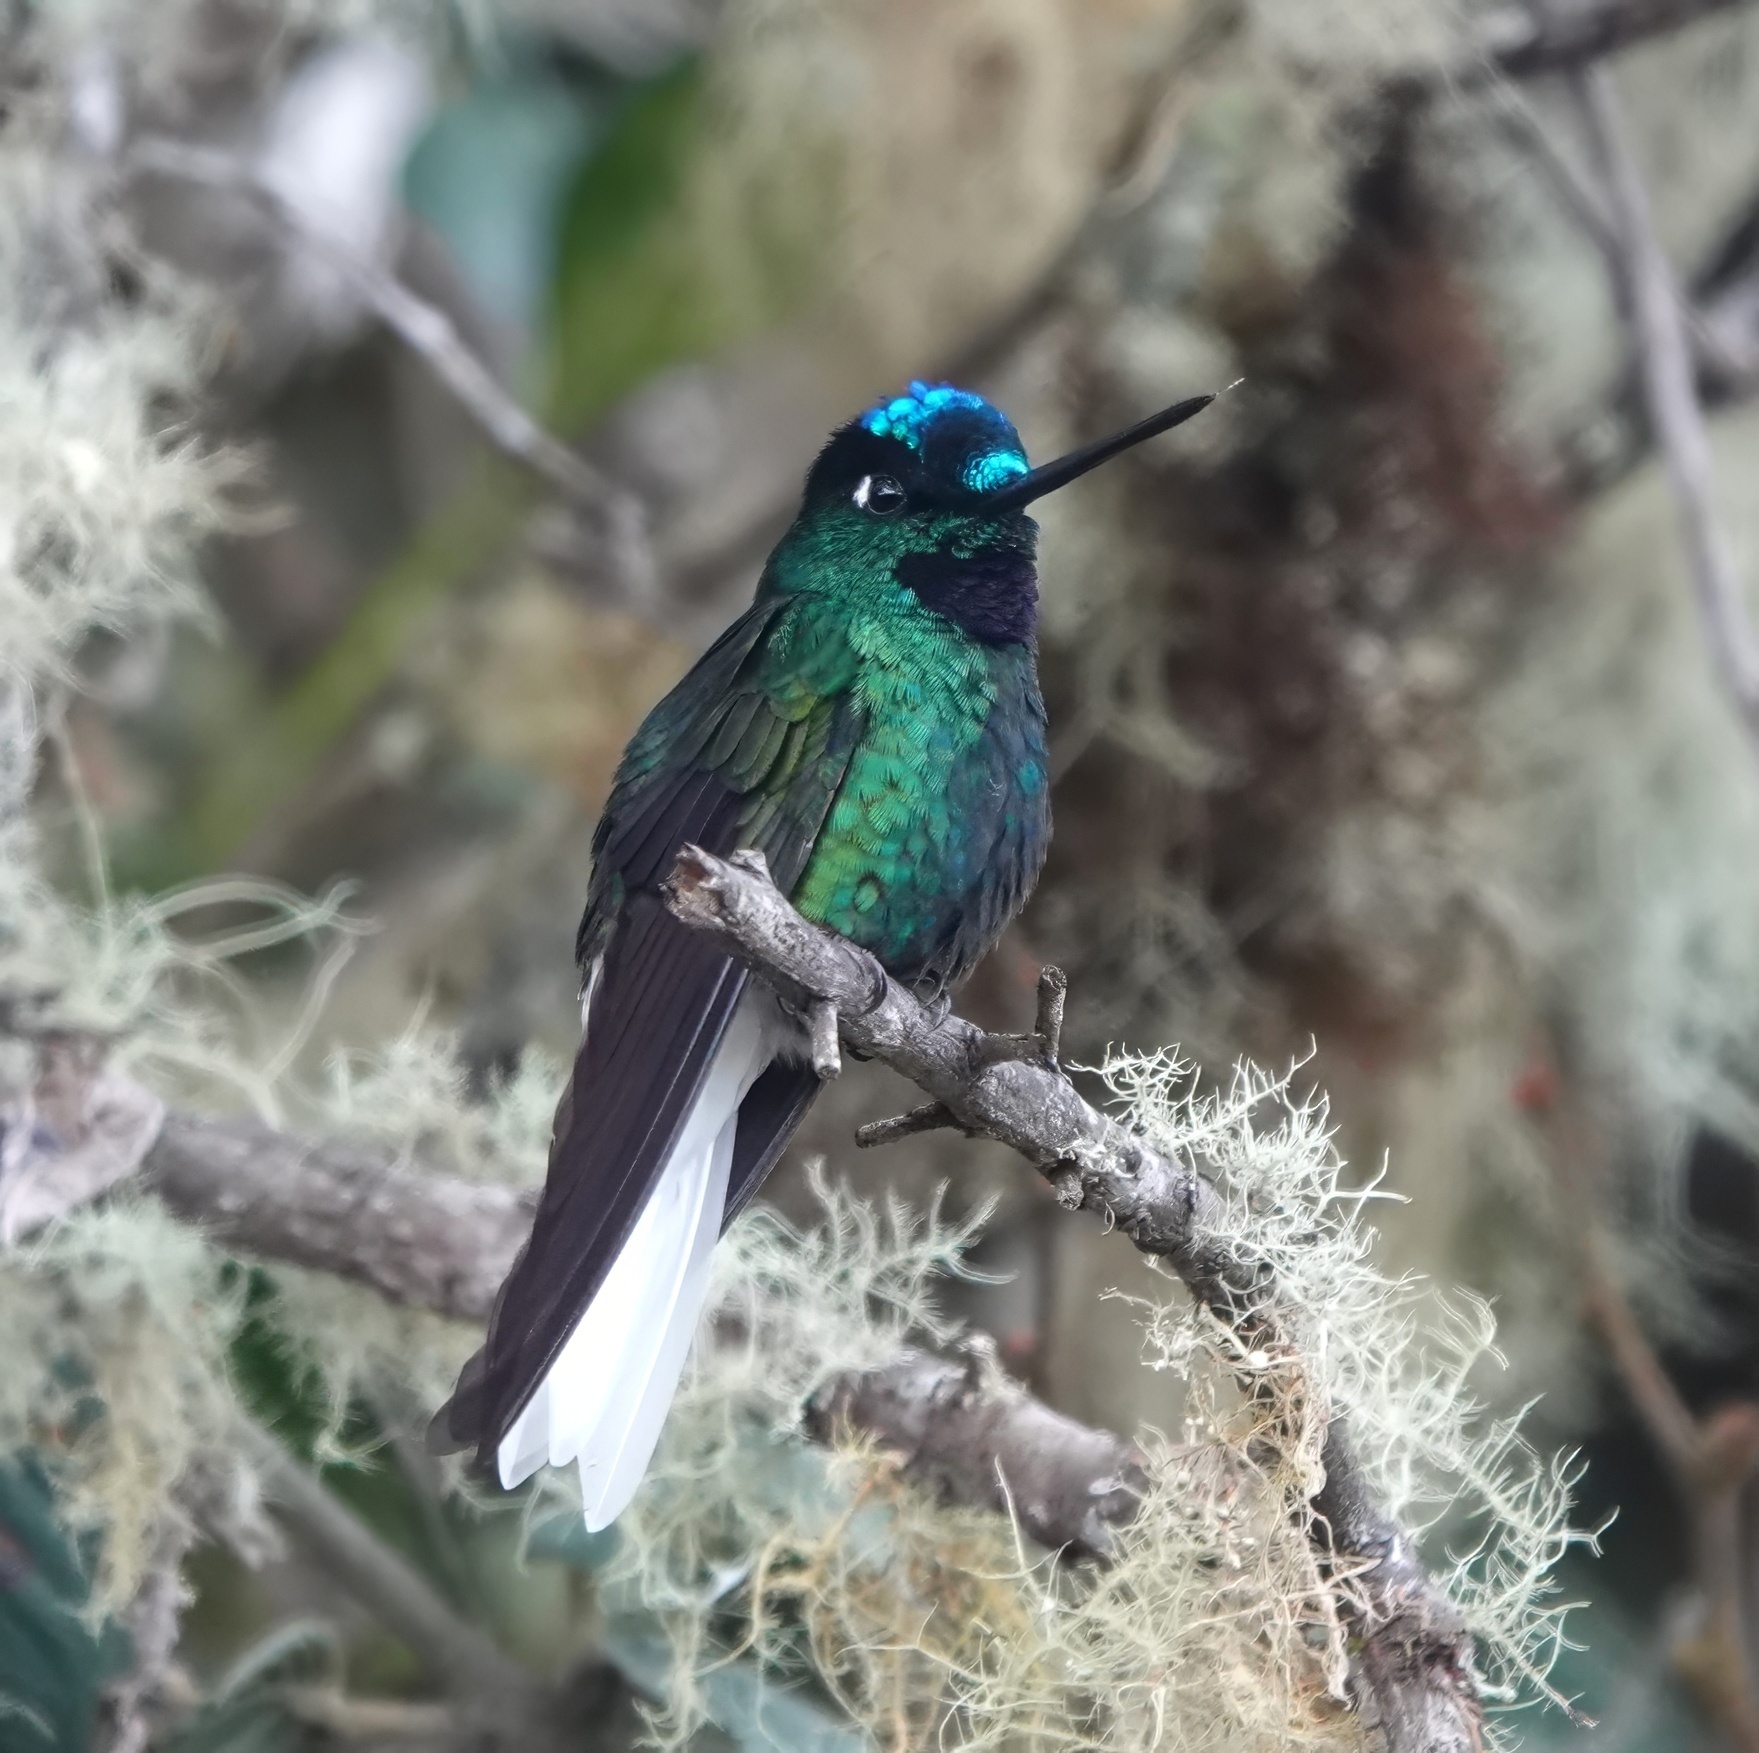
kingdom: Animalia
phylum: Chordata
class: Aves
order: Apodiformes
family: Trochilidae
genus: Coeligena
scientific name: Coeligena phalerata
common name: White-tailed starfrontlet
